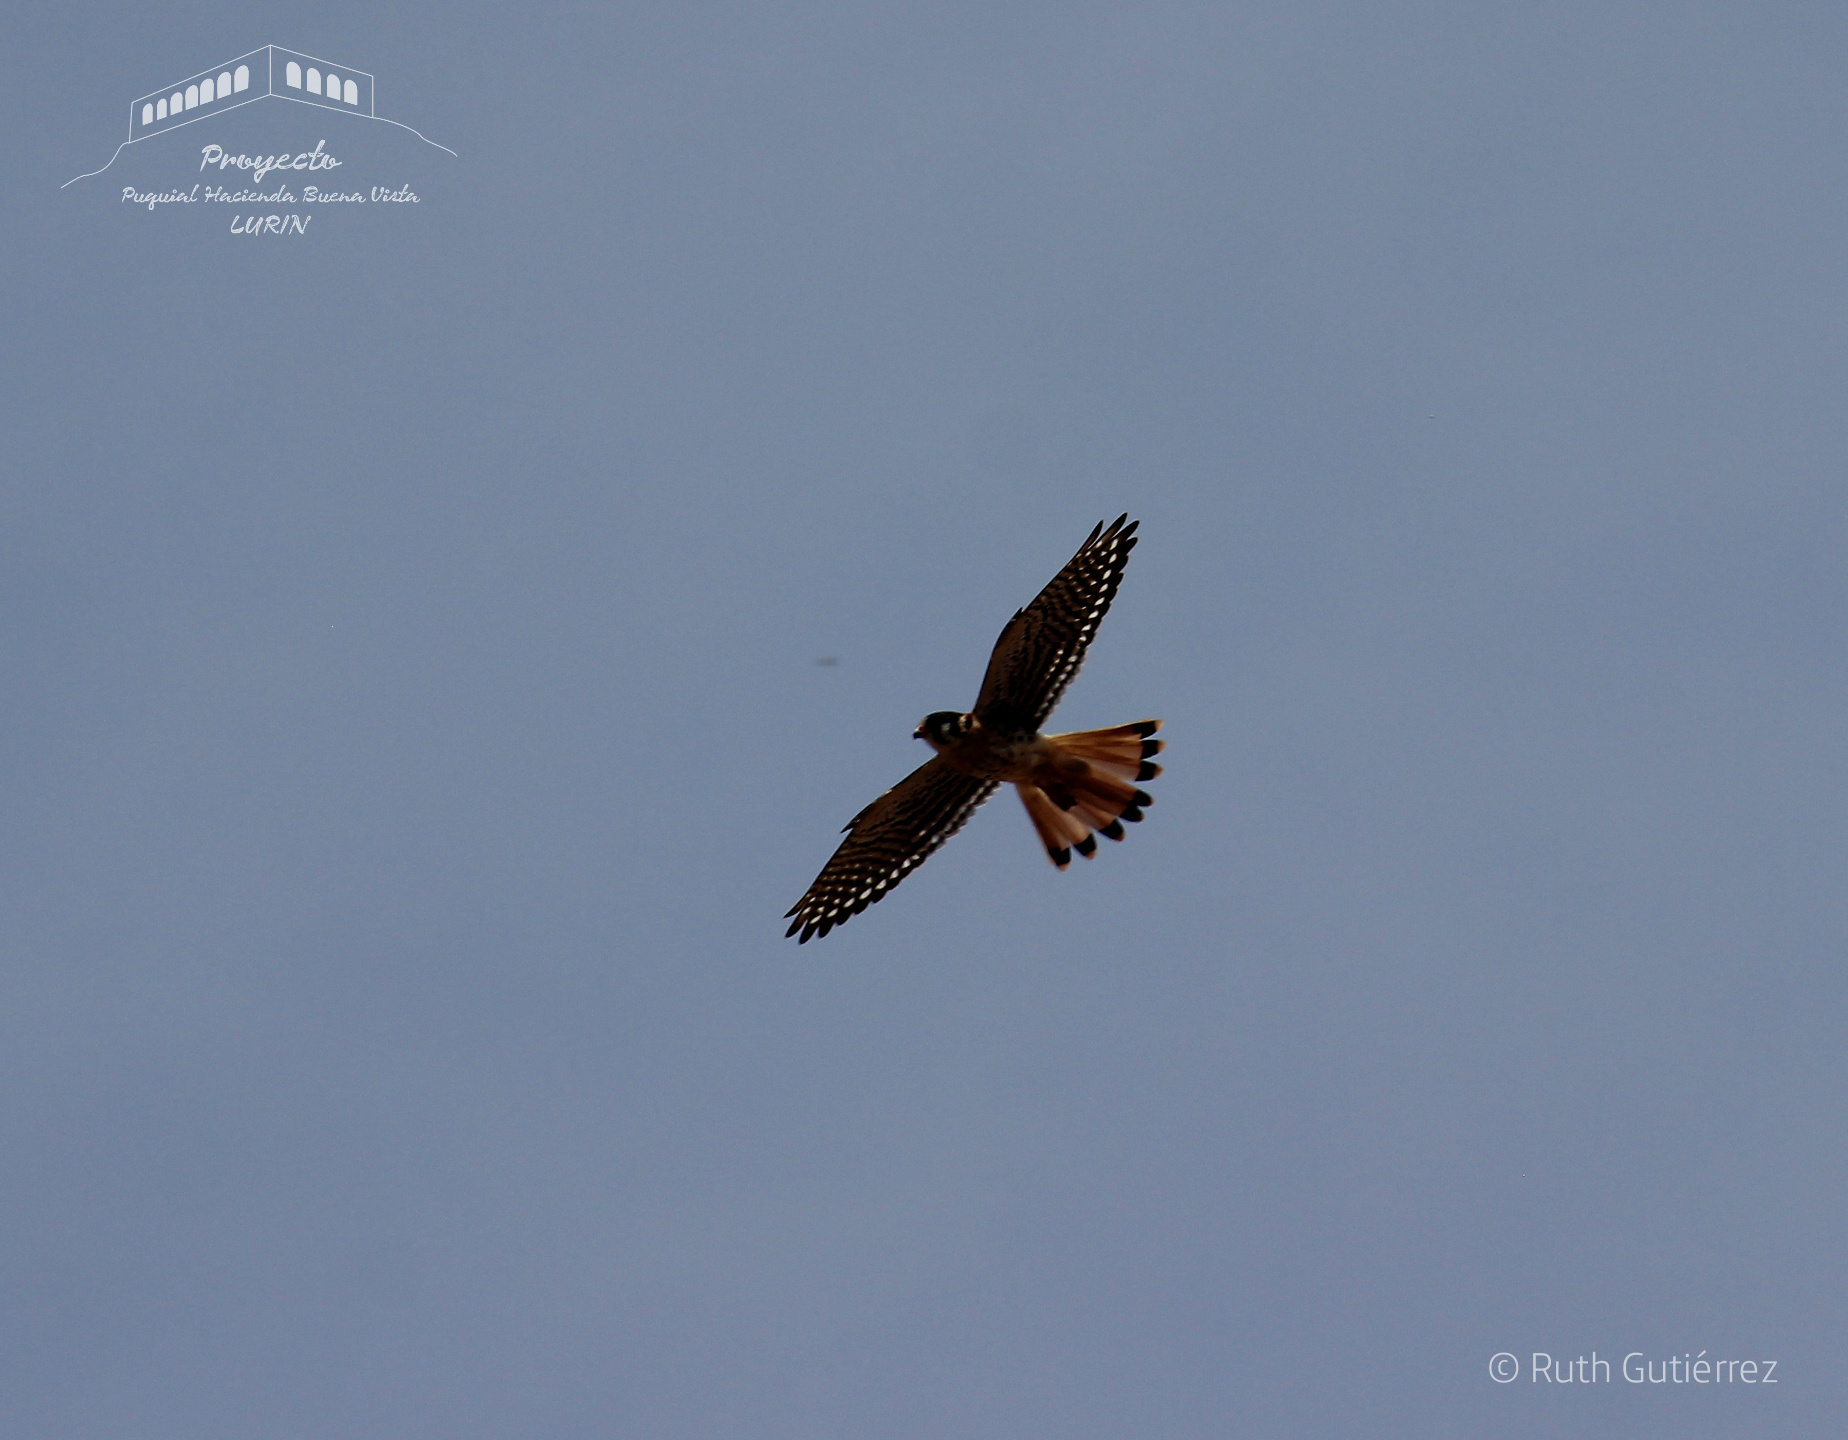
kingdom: Animalia
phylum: Chordata
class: Aves
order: Falconiformes
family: Falconidae
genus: Falco
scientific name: Falco sparverius
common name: American kestrel
